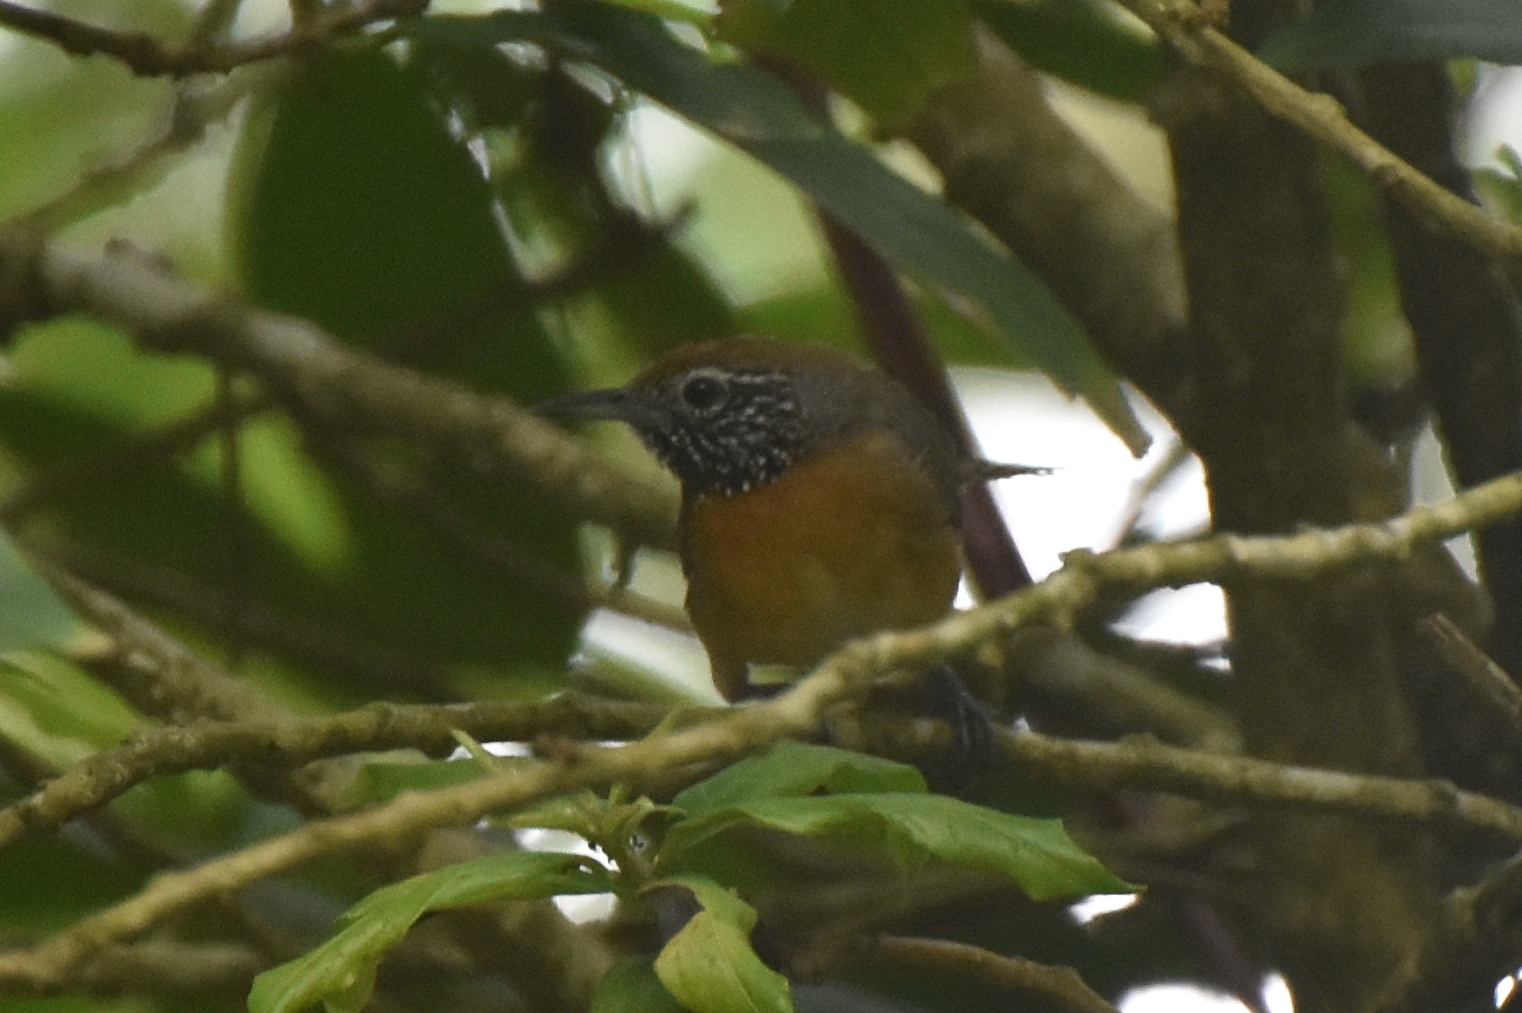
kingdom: Animalia
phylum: Chordata
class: Aves
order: Passeriformes
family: Troglodytidae
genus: Pheugopedius
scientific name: Pheugopedius rutilus
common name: Rufous-breasted wren
